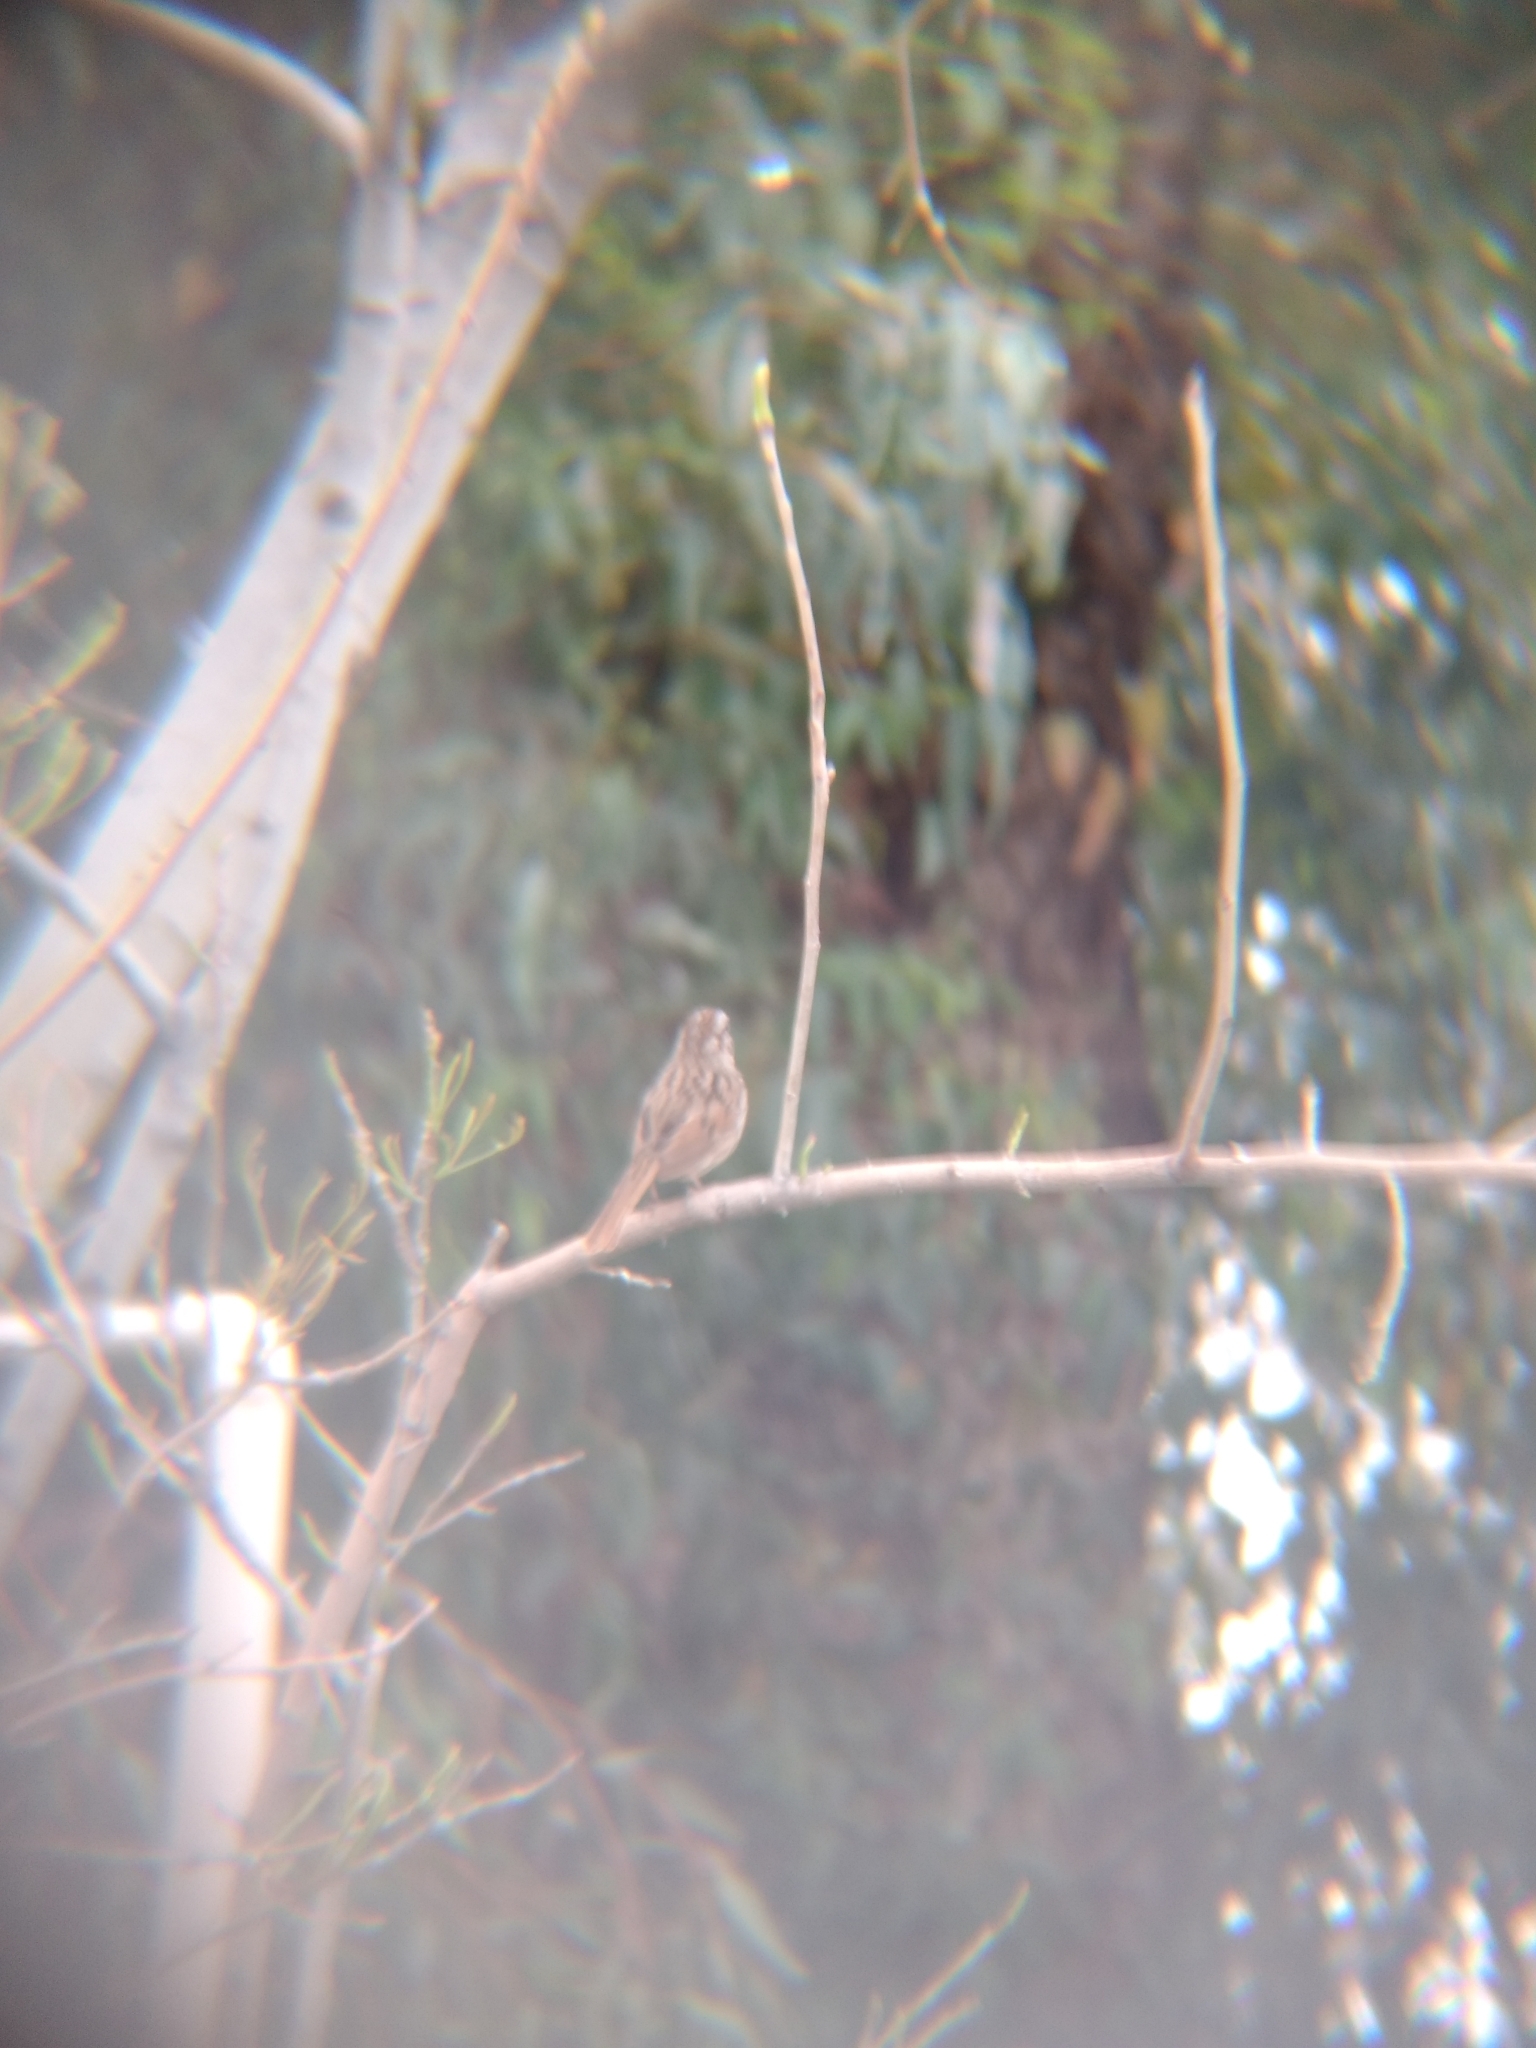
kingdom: Animalia
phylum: Chordata
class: Aves
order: Passeriformes
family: Passerellidae
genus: Melospiza
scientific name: Melospiza melodia
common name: Song sparrow
